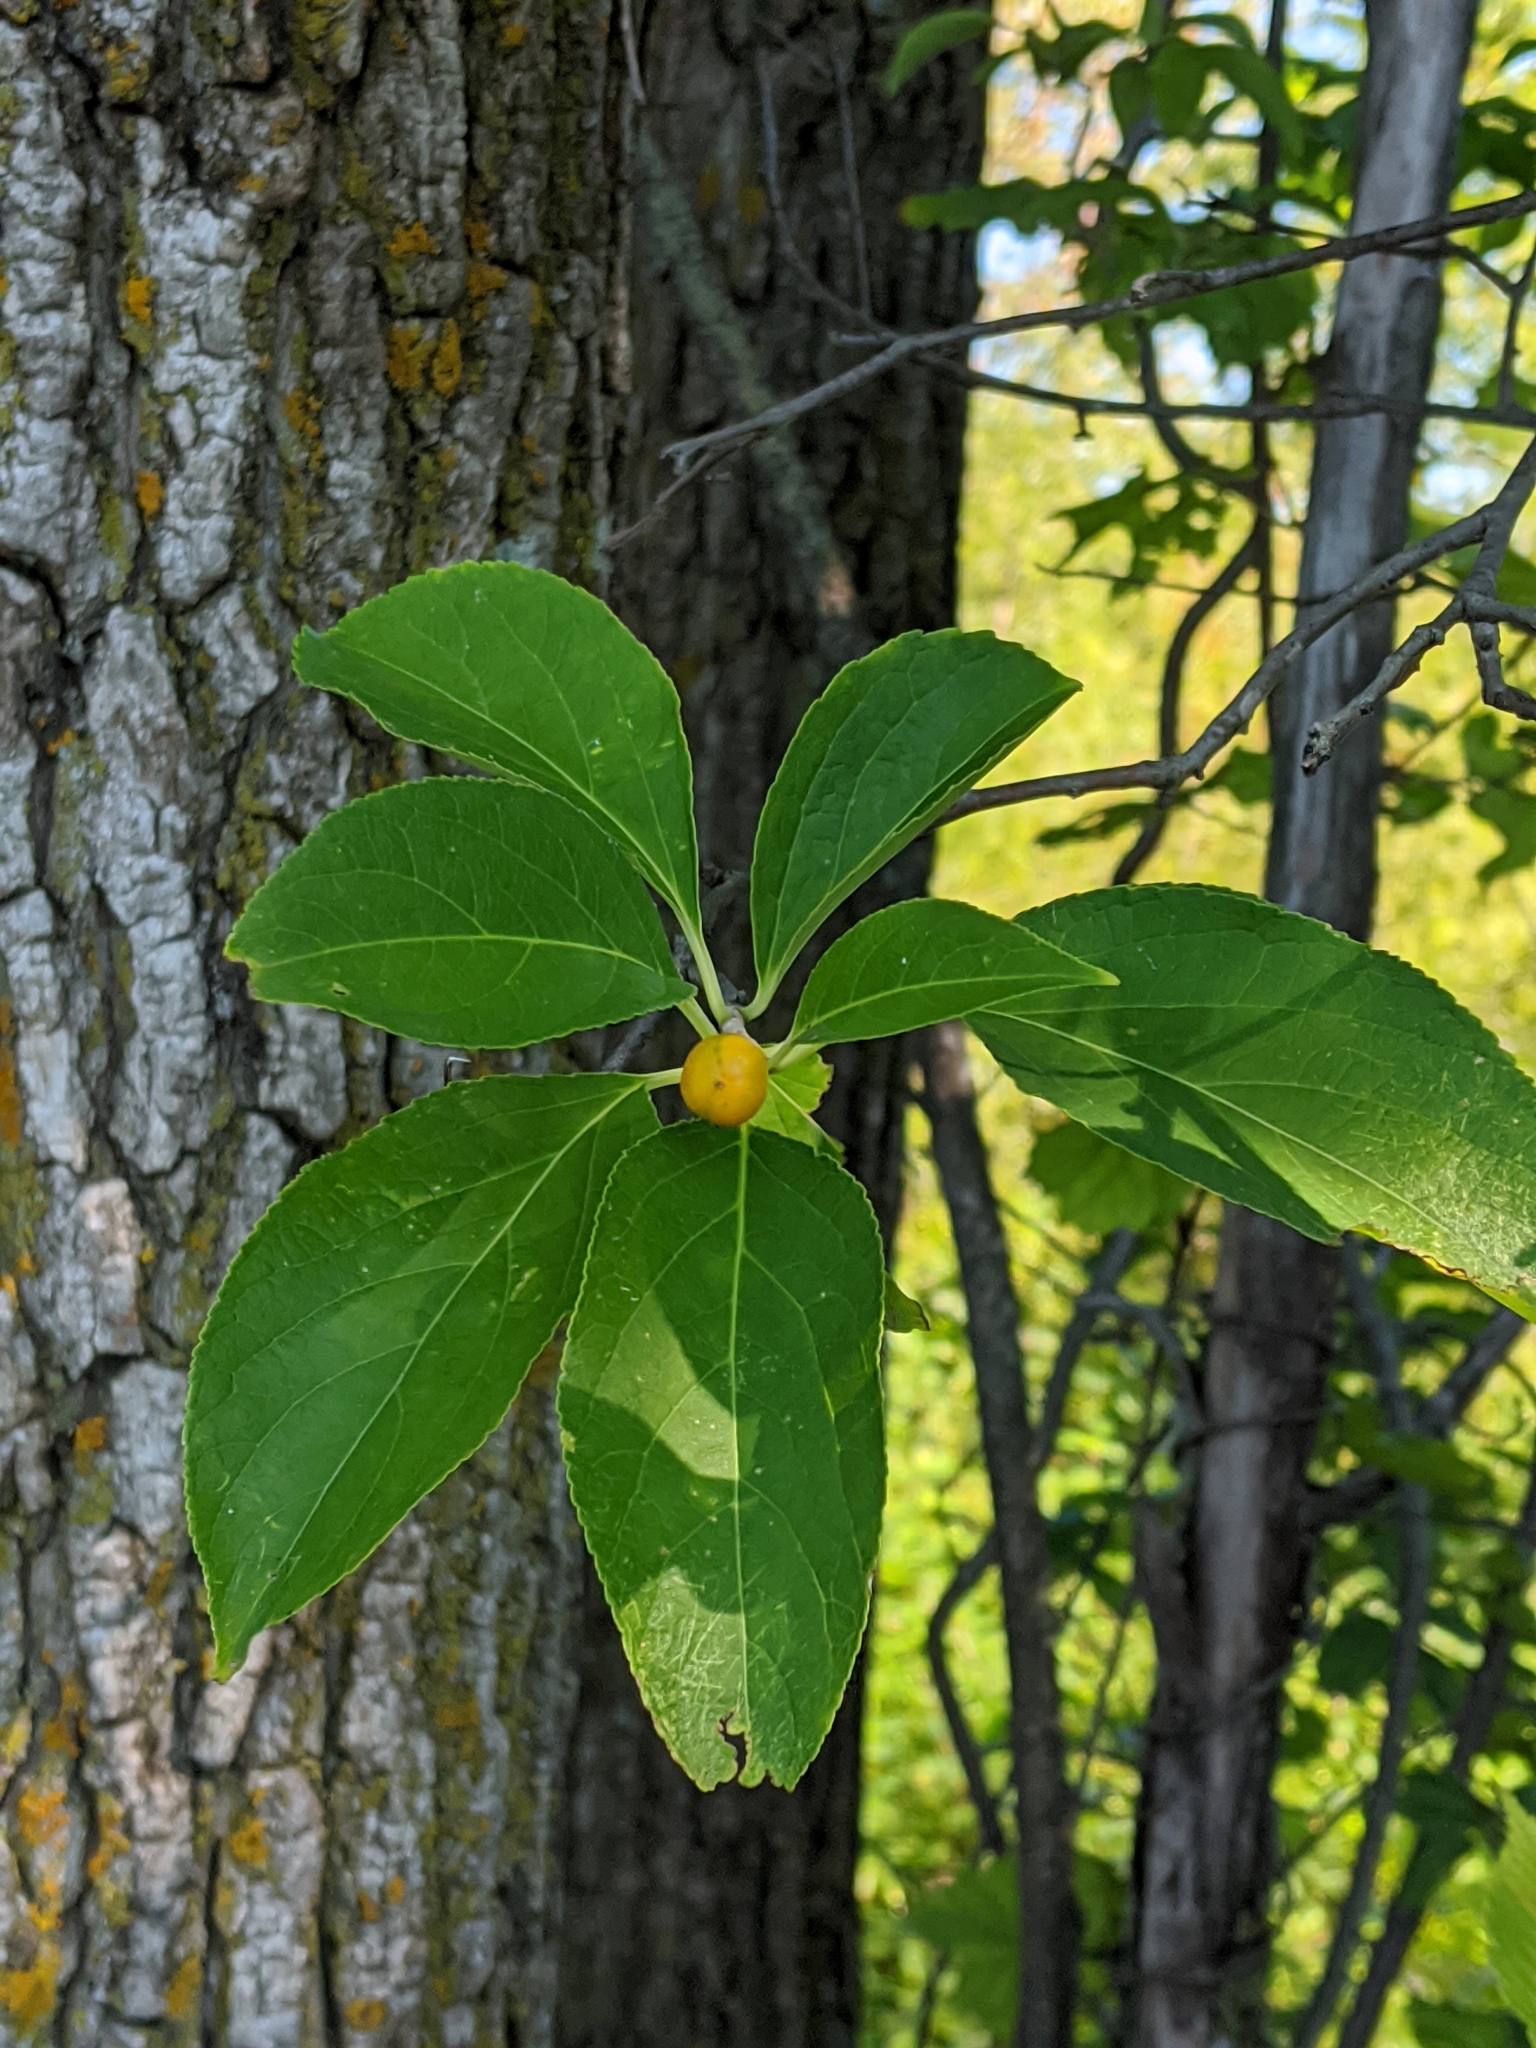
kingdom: Plantae
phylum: Tracheophyta
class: Magnoliopsida
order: Celastrales
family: Celastraceae
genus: Celastrus
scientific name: Celastrus scandens
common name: American bittersweet
